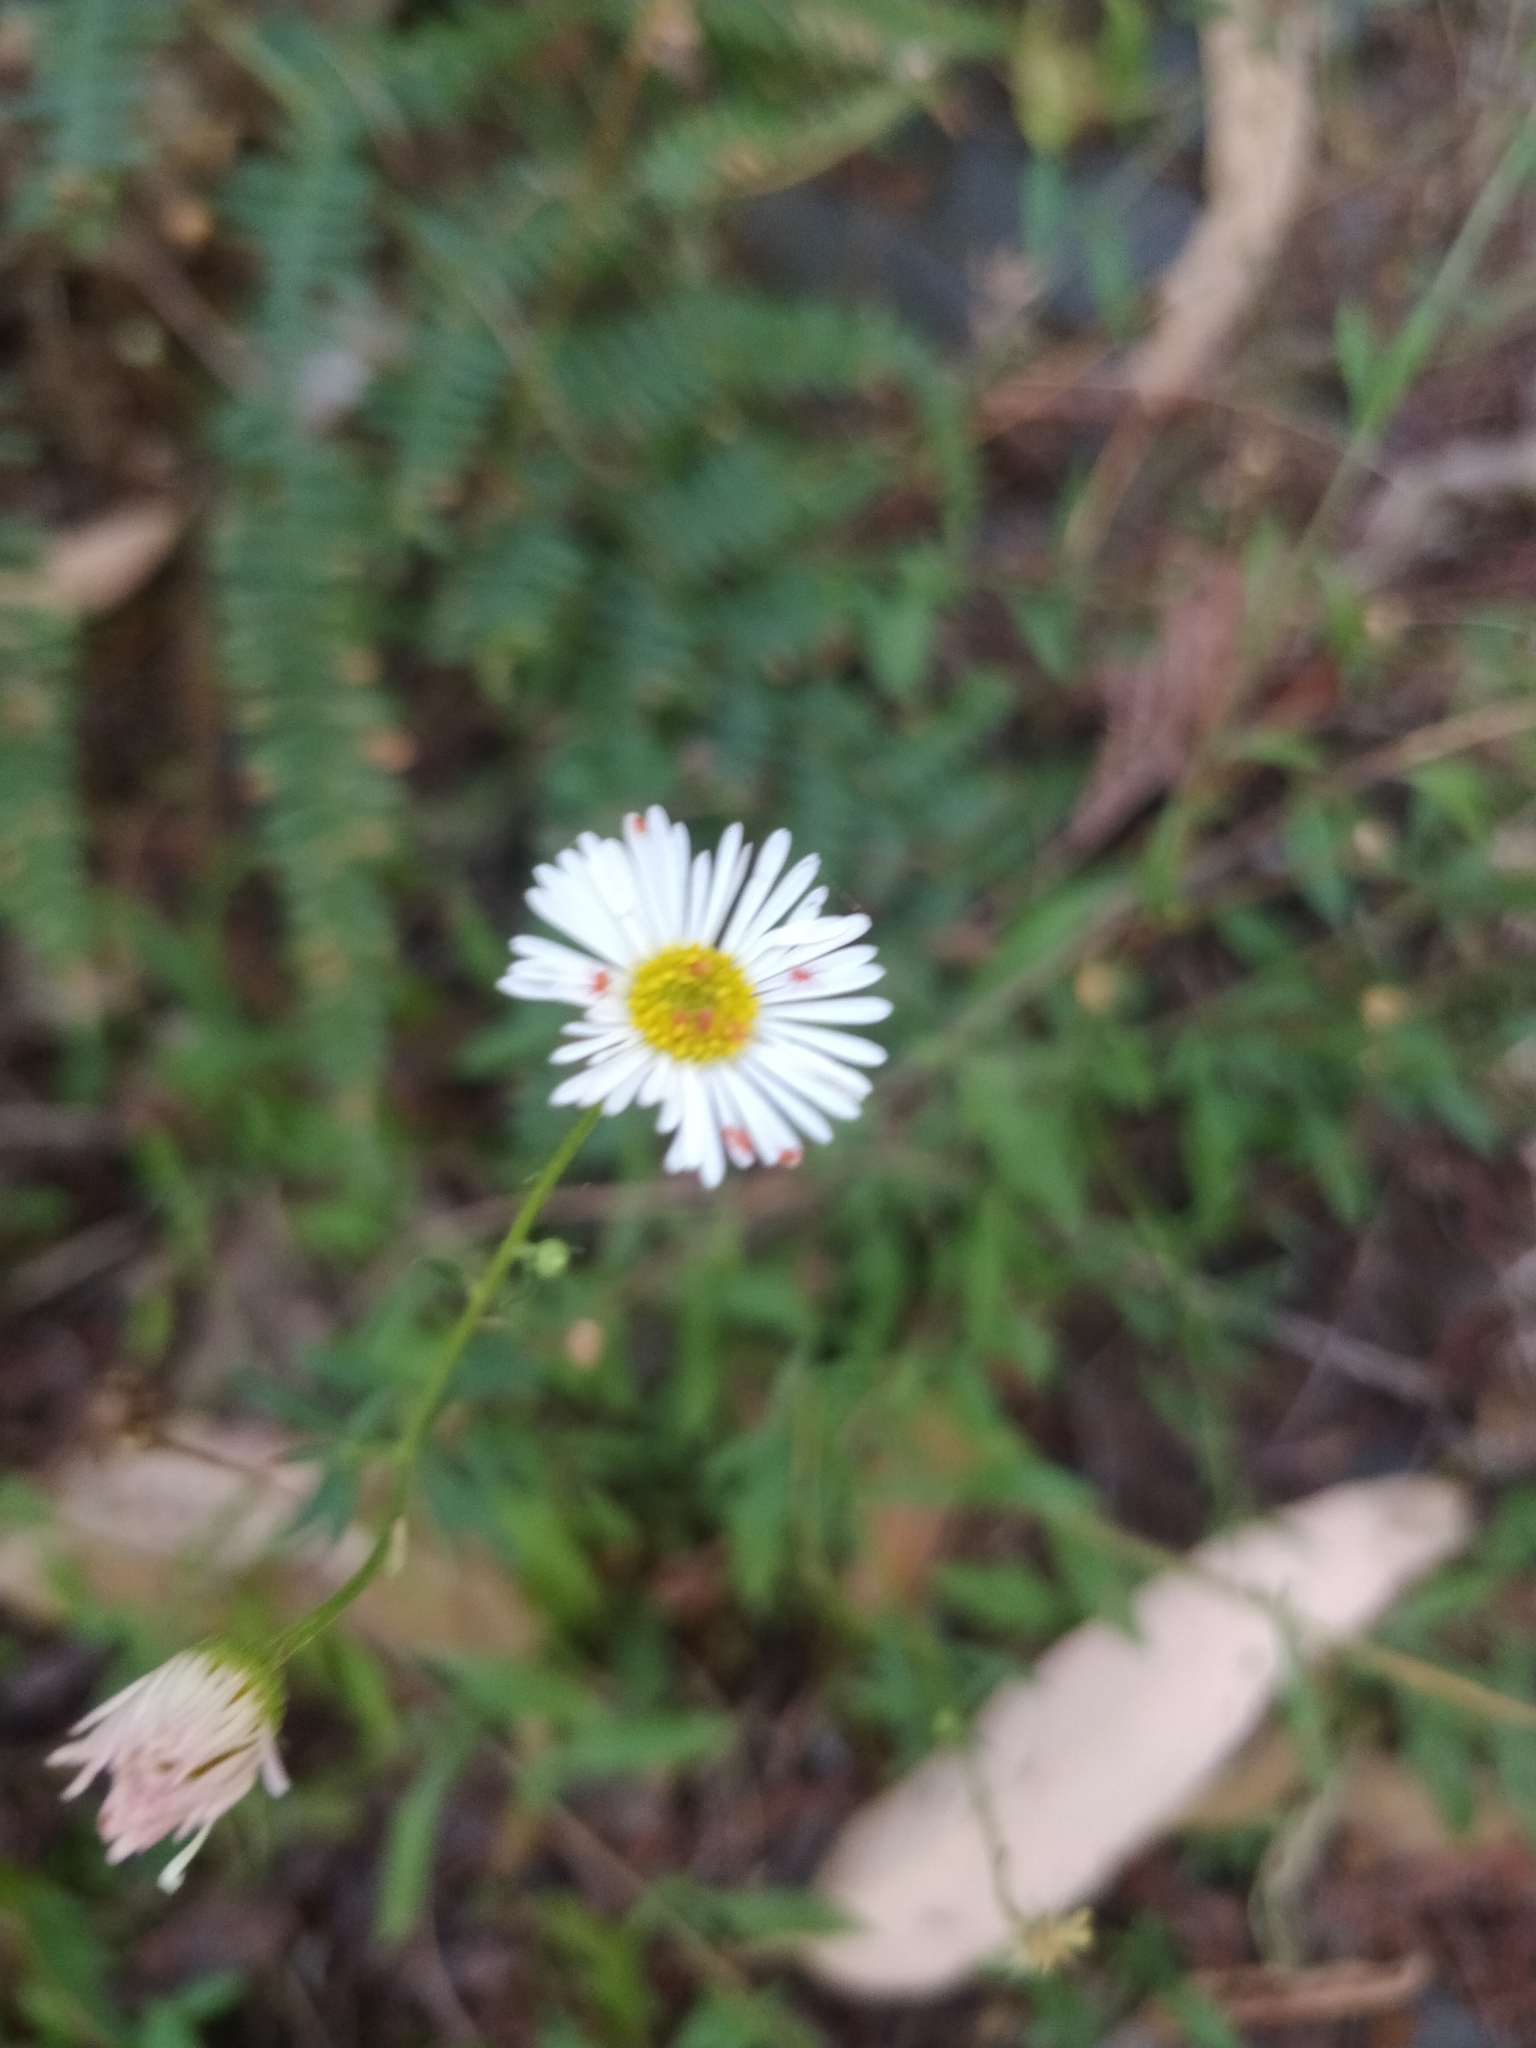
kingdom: Plantae
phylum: Tracheophyta
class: Magnoliopsida
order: Asterales
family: Asteraceae
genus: Erigeron
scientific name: Erigeron karvinskianus
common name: Mexican fleabane
